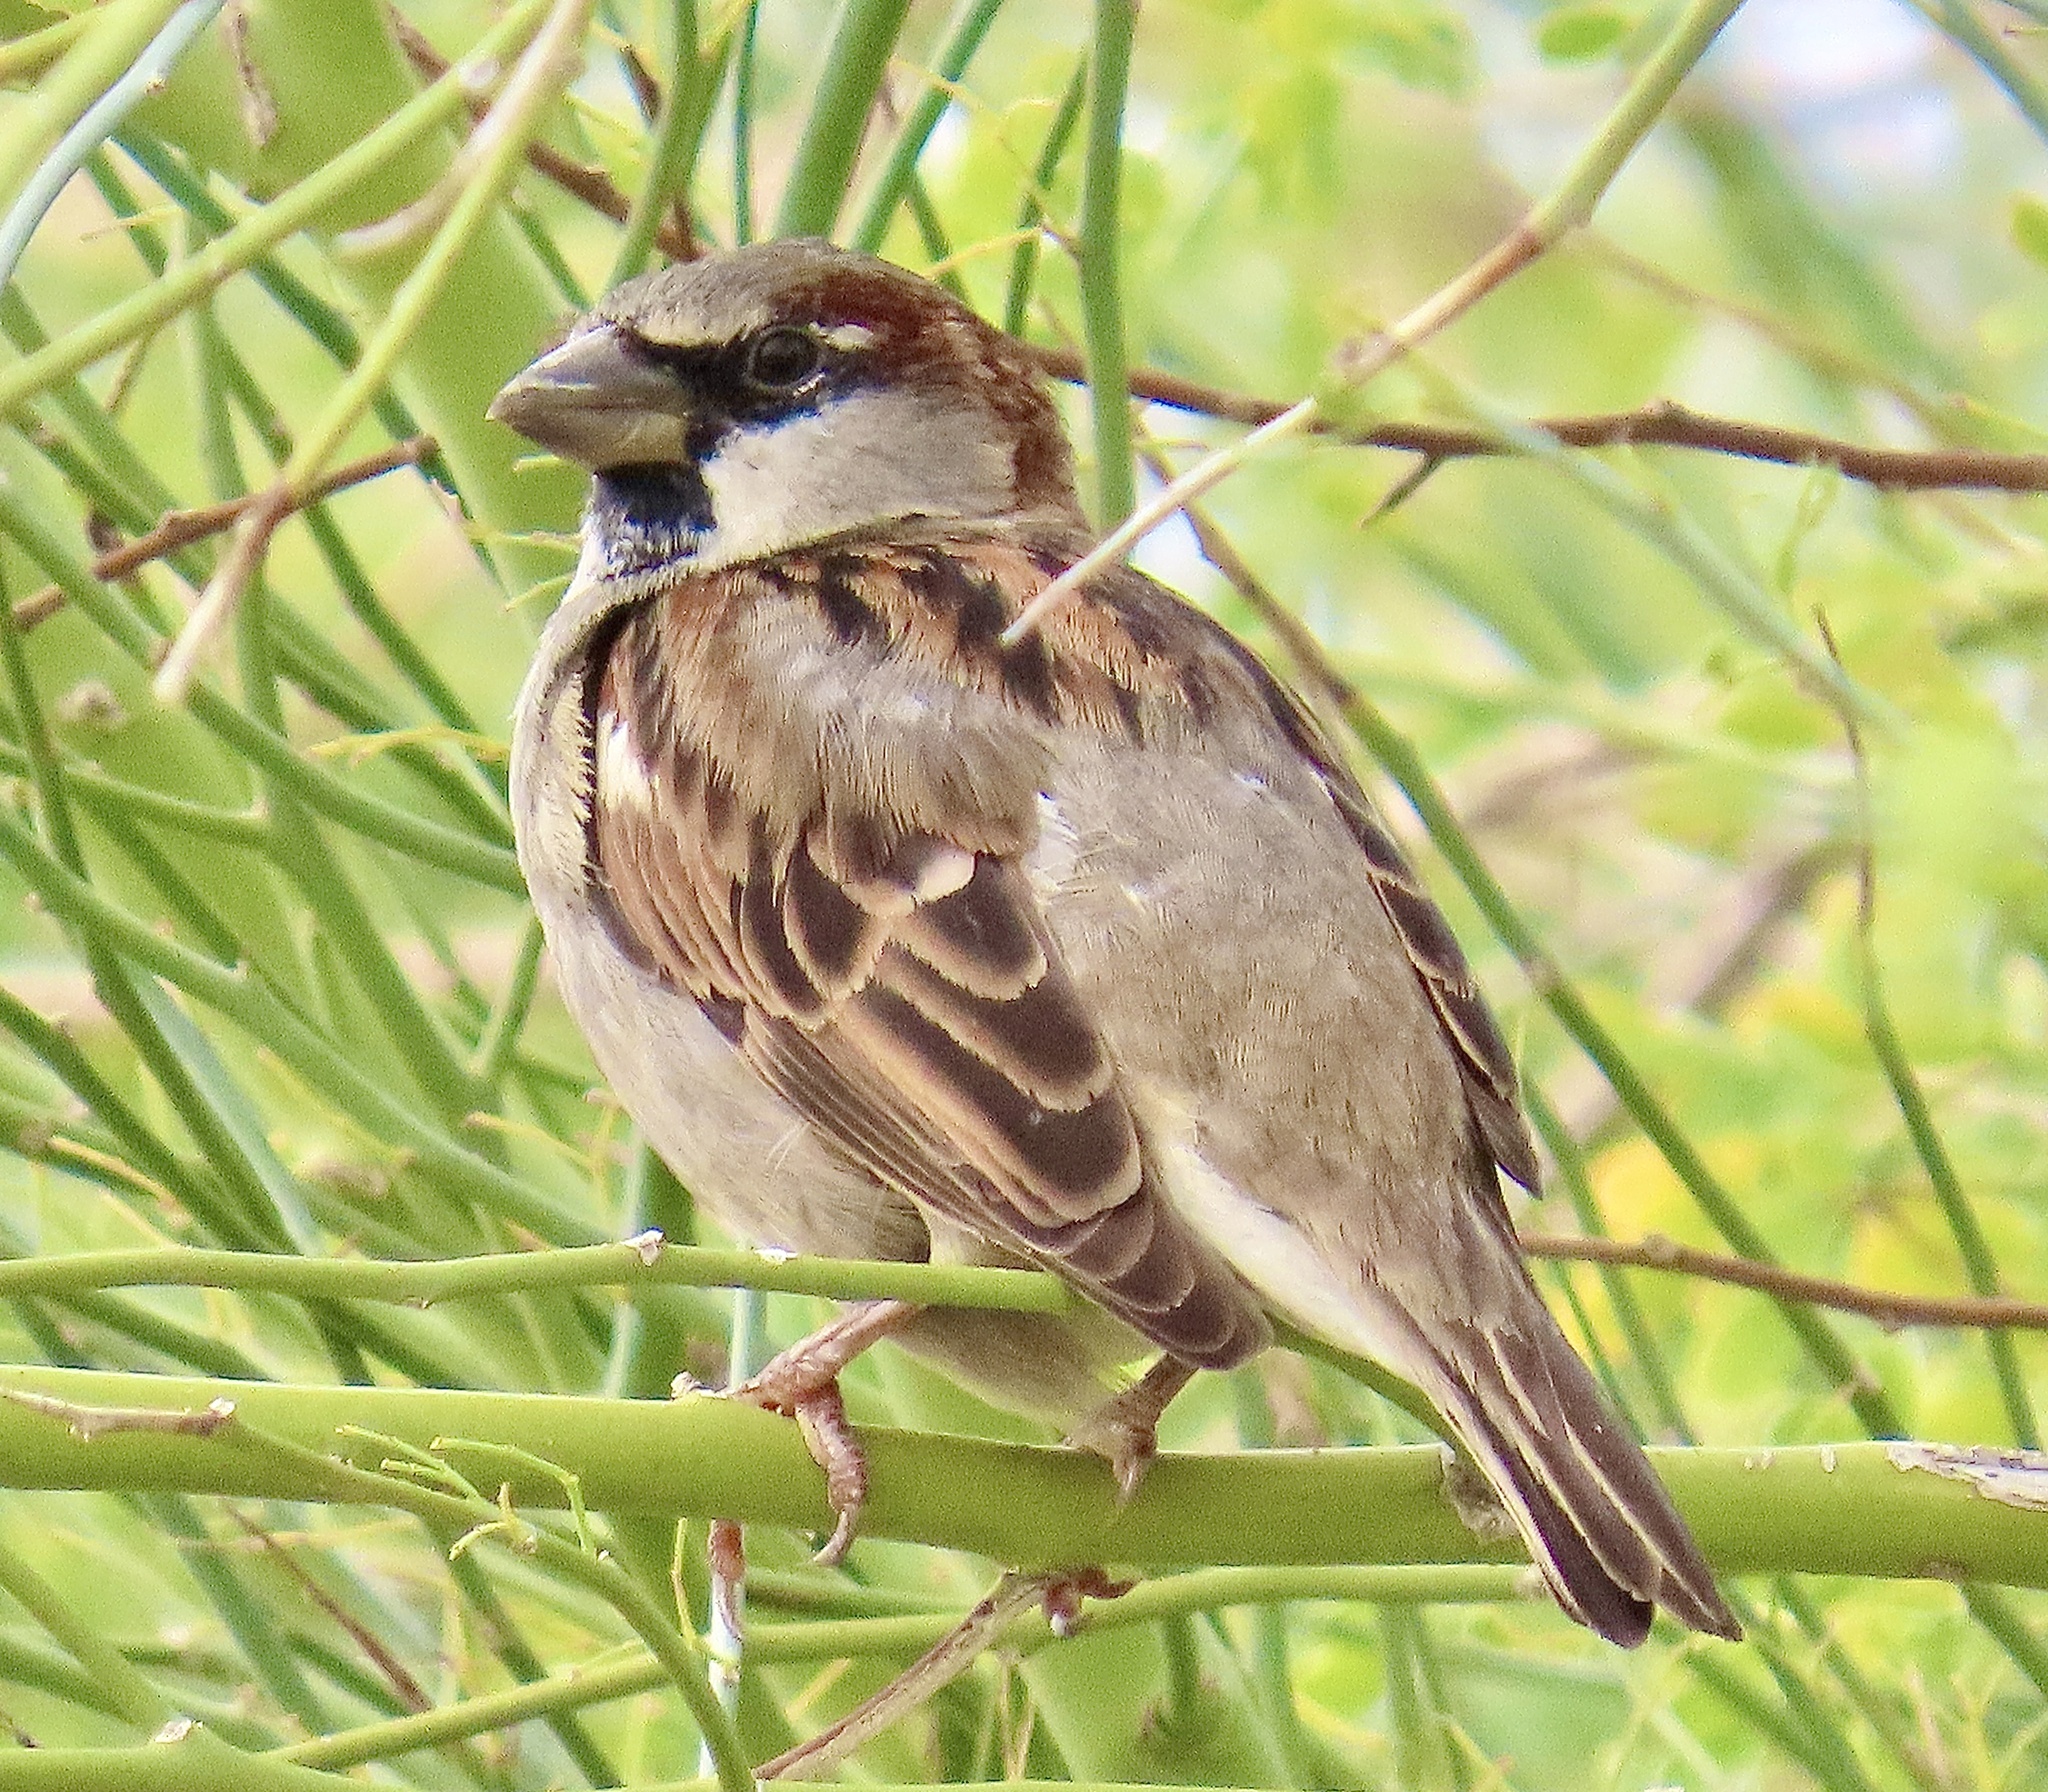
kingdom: Animalia
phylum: Chordata
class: Aves
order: Passeriformes
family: Passeridae
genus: Passer
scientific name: Passer domesticus
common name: House sparrow
